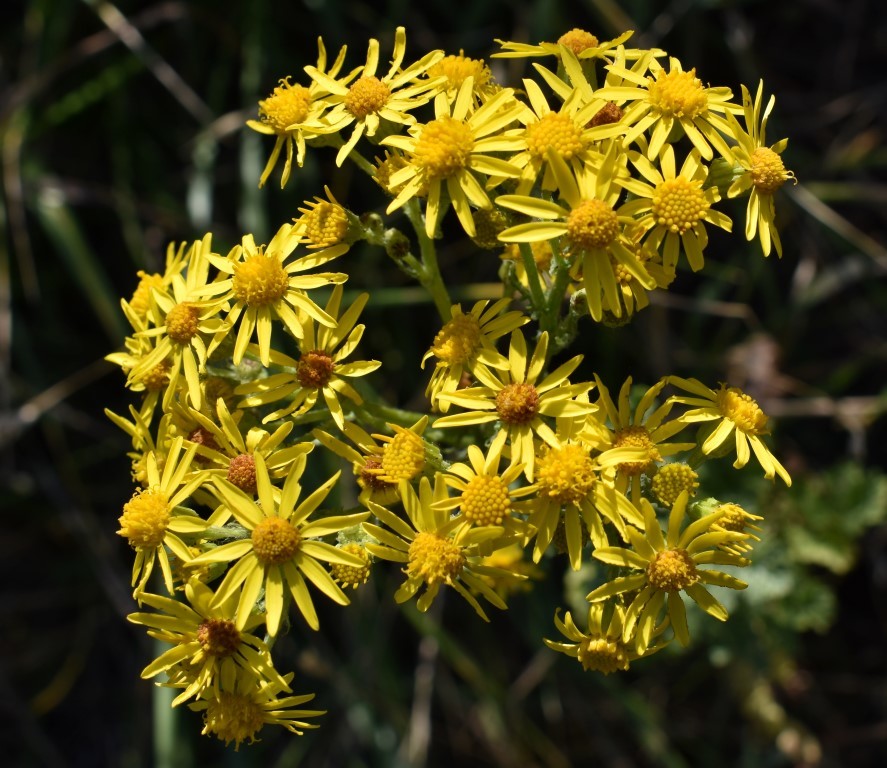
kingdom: Plantae
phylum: Tracheophyta
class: Magnoliopsida
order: Asterales
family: Asteraceae
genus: Jacobaea
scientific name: Jacobaea vulgaris
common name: Stinking willie
